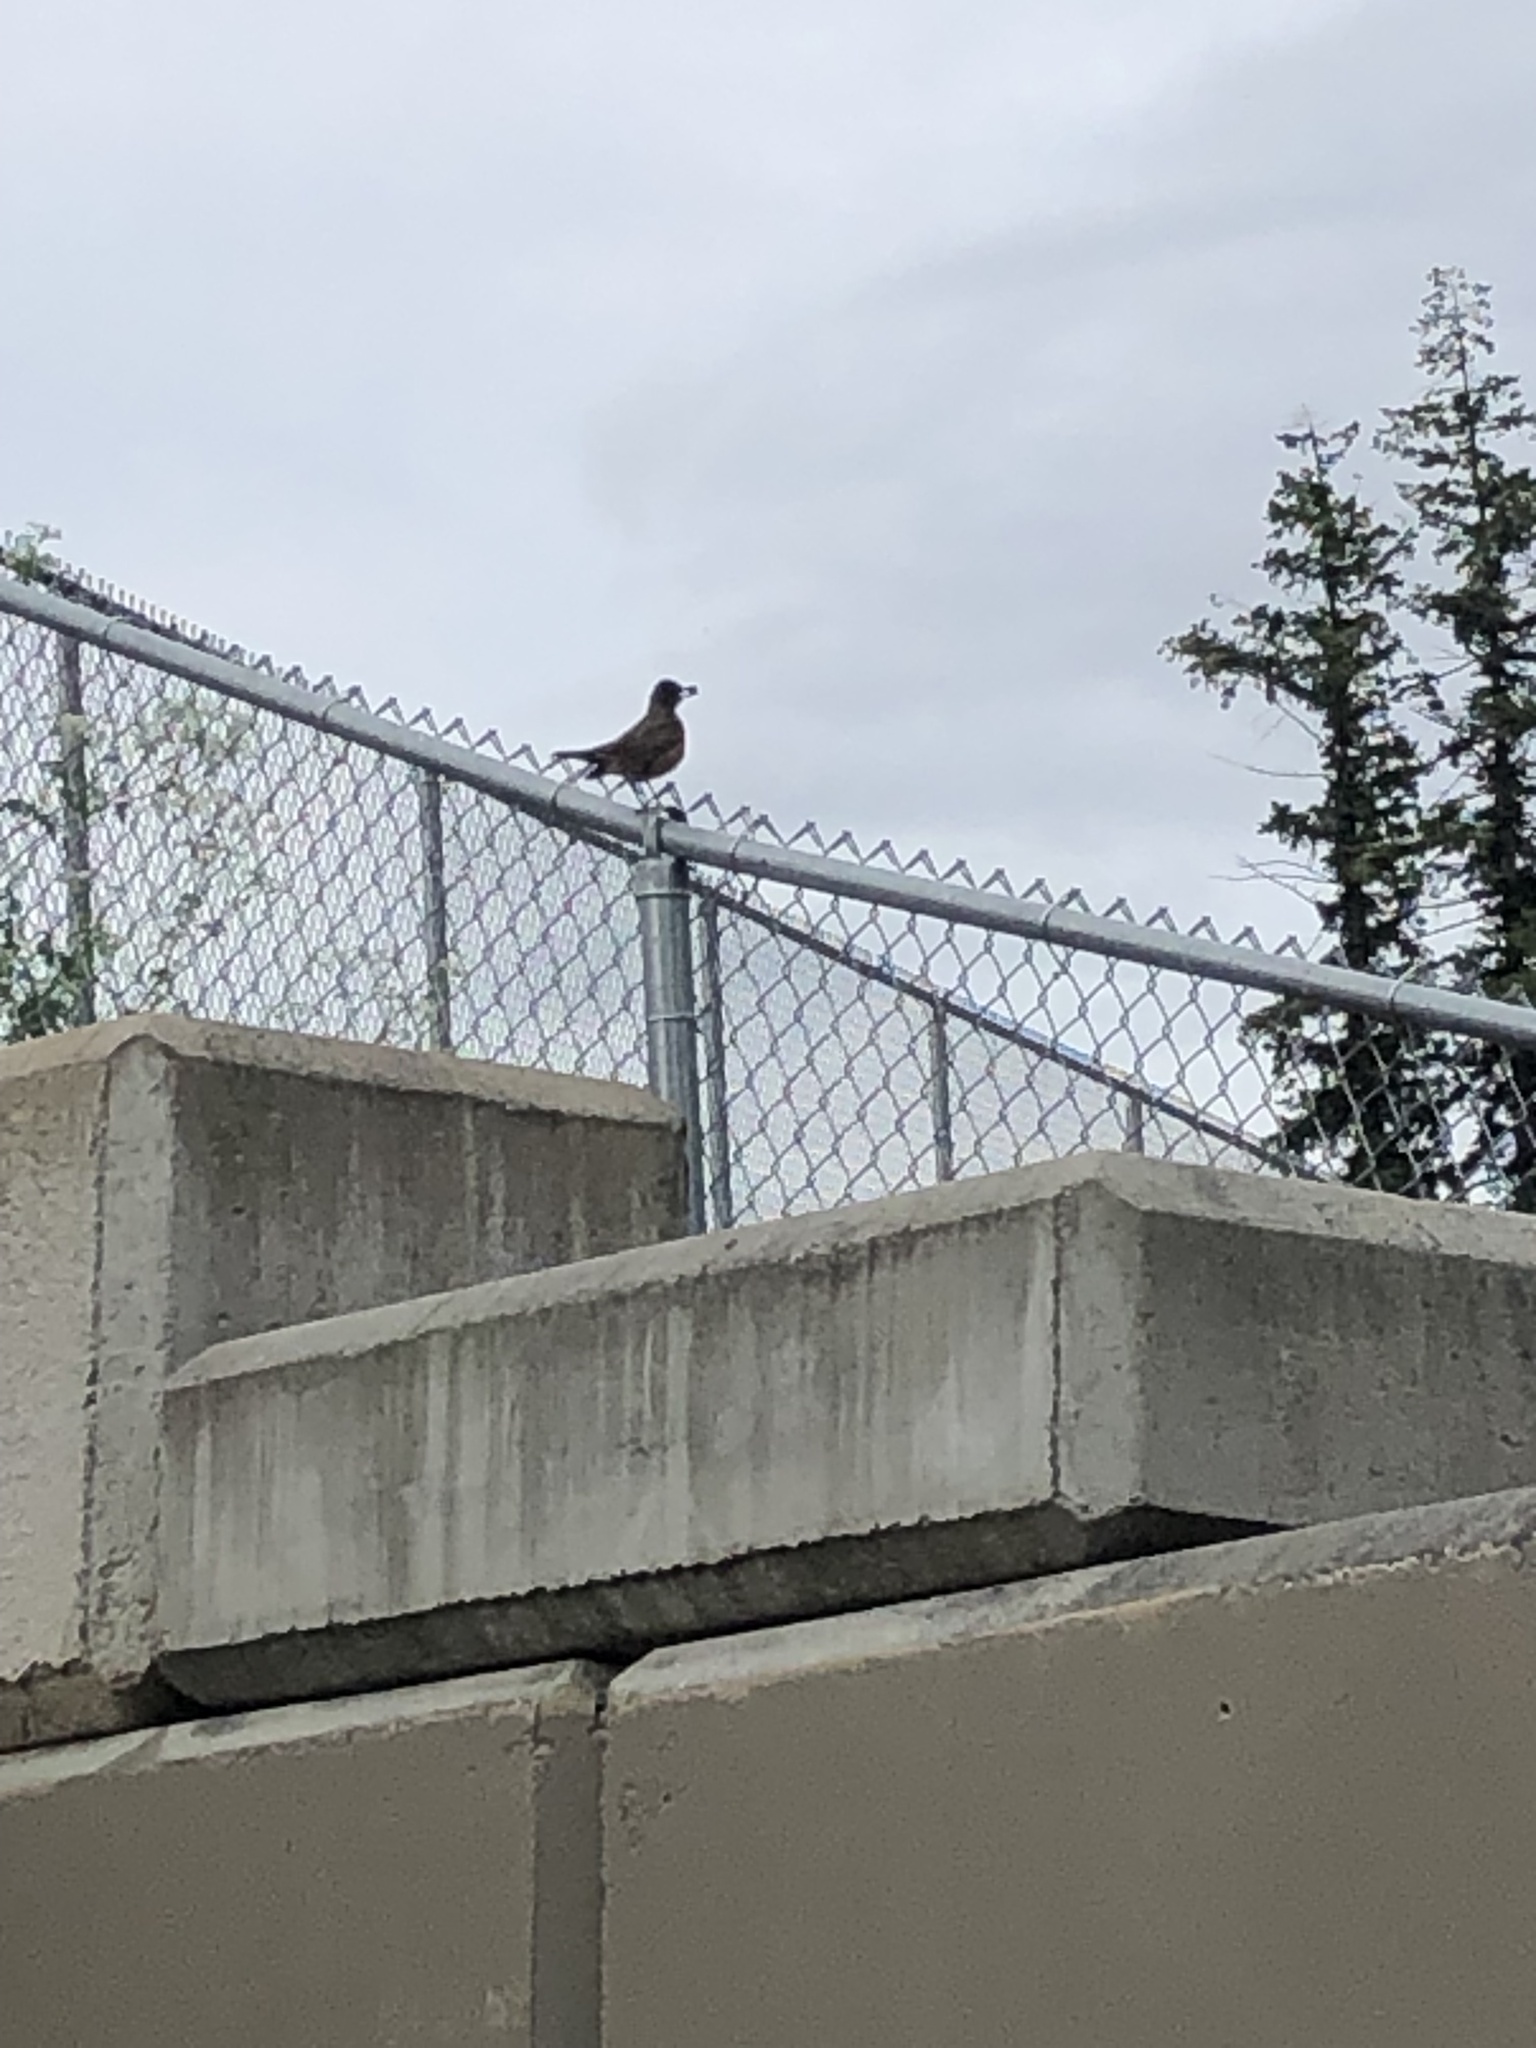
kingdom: Animalia
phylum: Chordata
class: Aves
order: Passeriformes
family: Turdidae
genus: Turdus
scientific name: Turdus migratorius
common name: American robin
